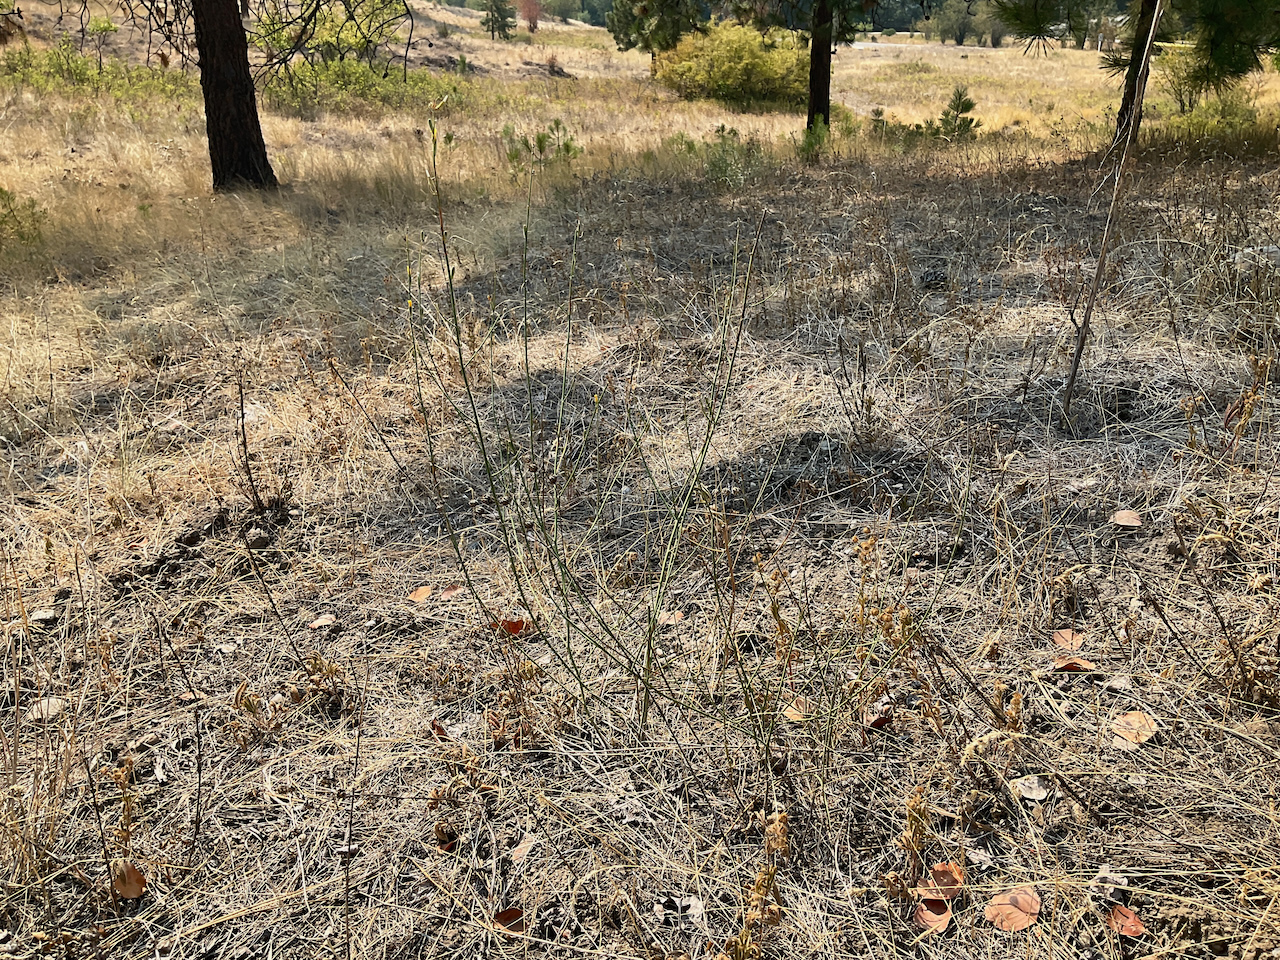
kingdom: Plantae
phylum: Tracheophyta
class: Magnoliopsida
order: Asterales
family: Asteraceae
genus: Chondrilla
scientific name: Chondrilla juncea
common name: Skeleton weed
